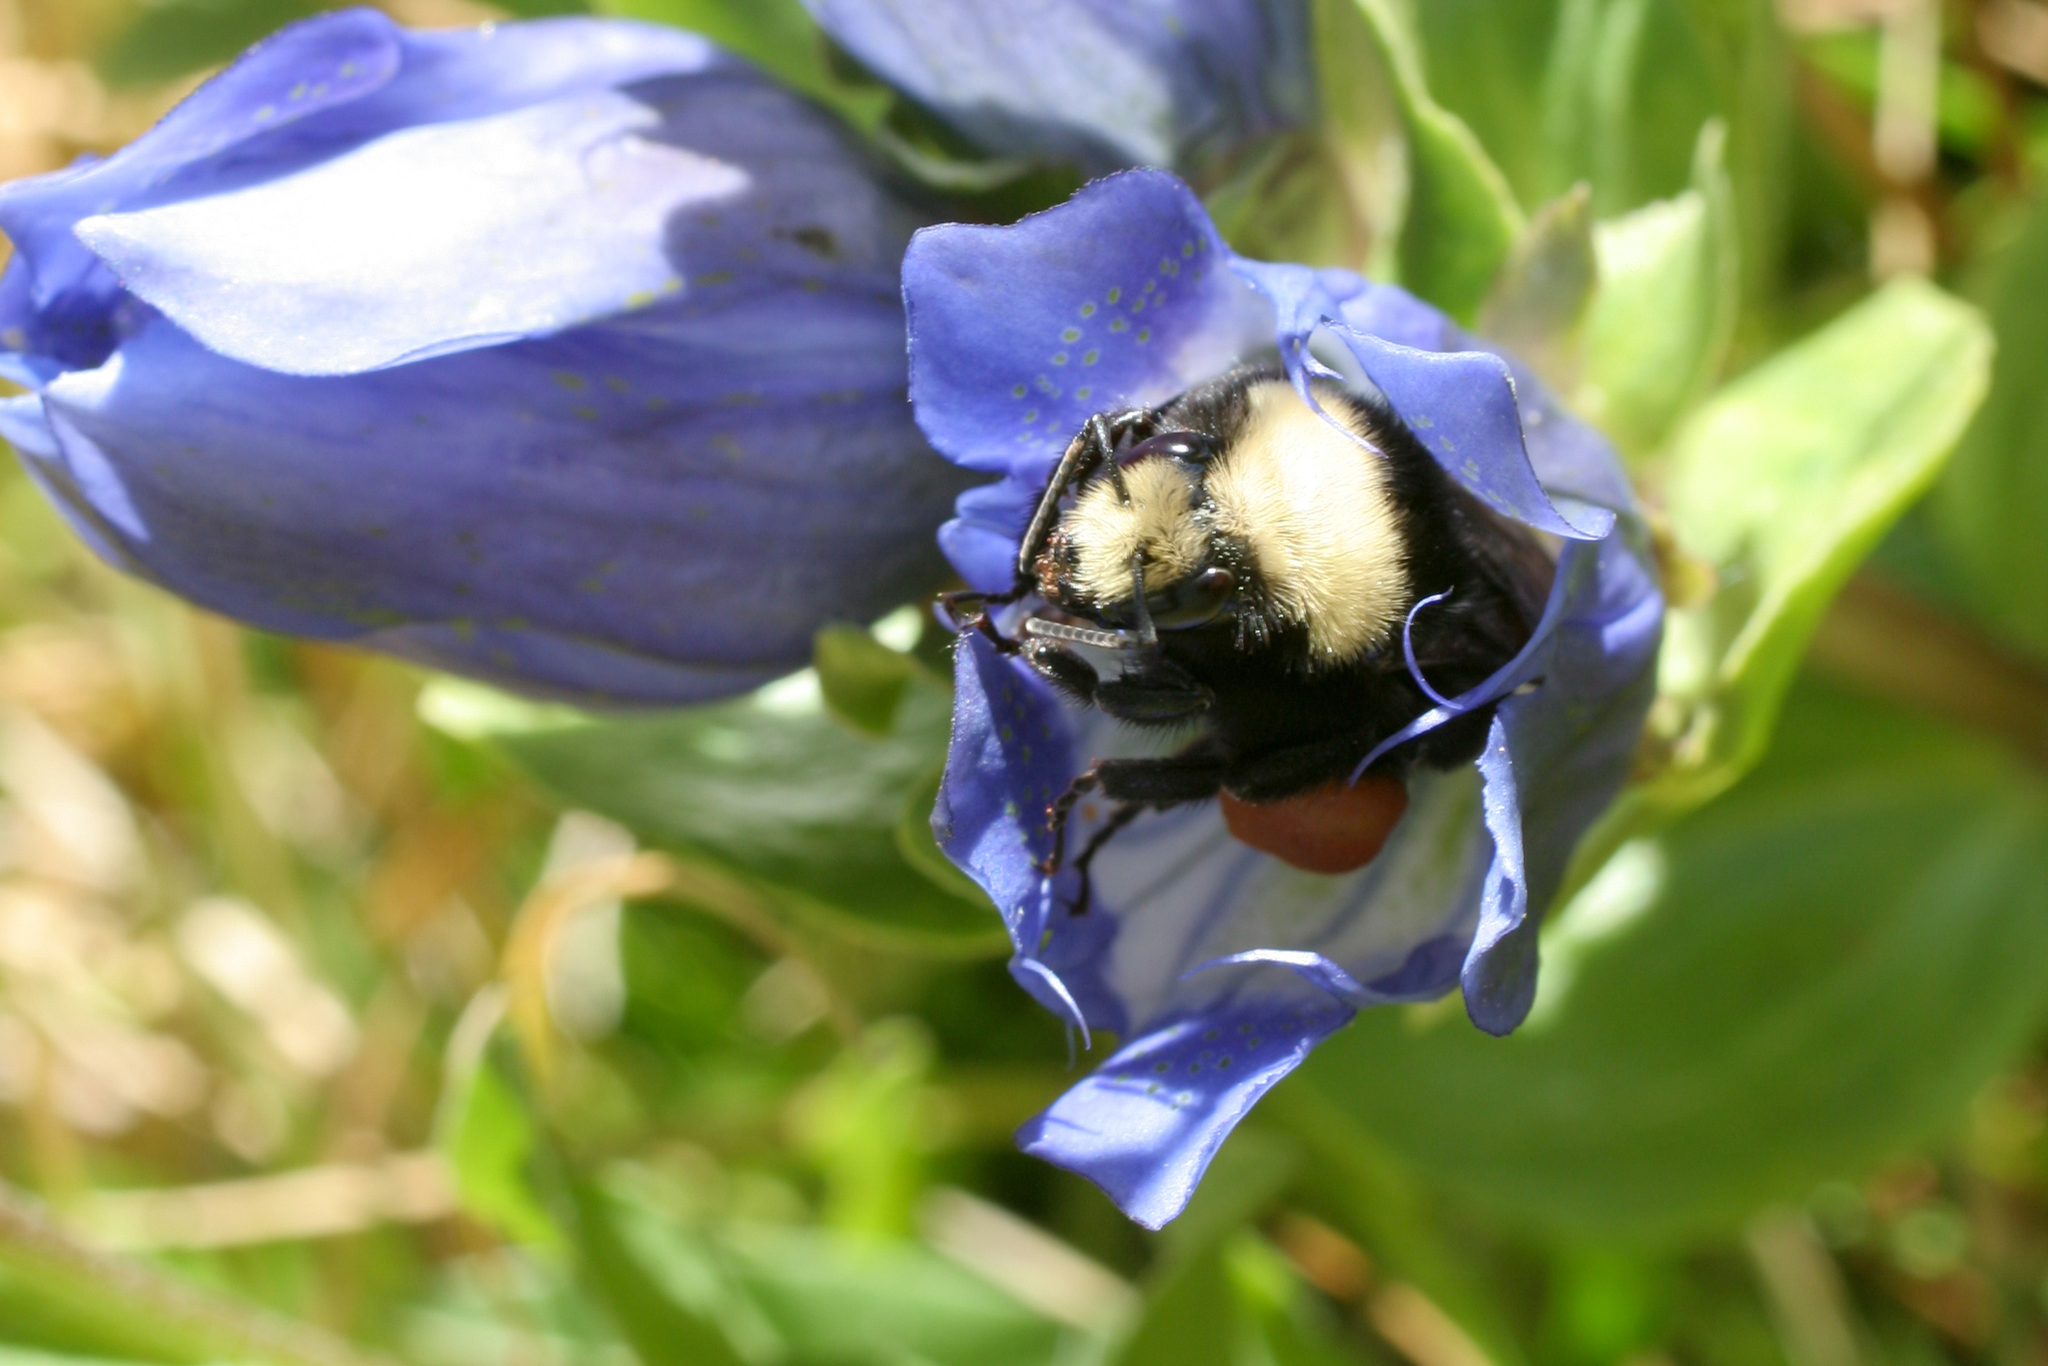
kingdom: Animalia
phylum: Arthropoda
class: Insecta
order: Hymenoptera
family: Apidae
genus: Bombus
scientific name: Bombus vosnesenskii
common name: Vosnesensky bumble bee
